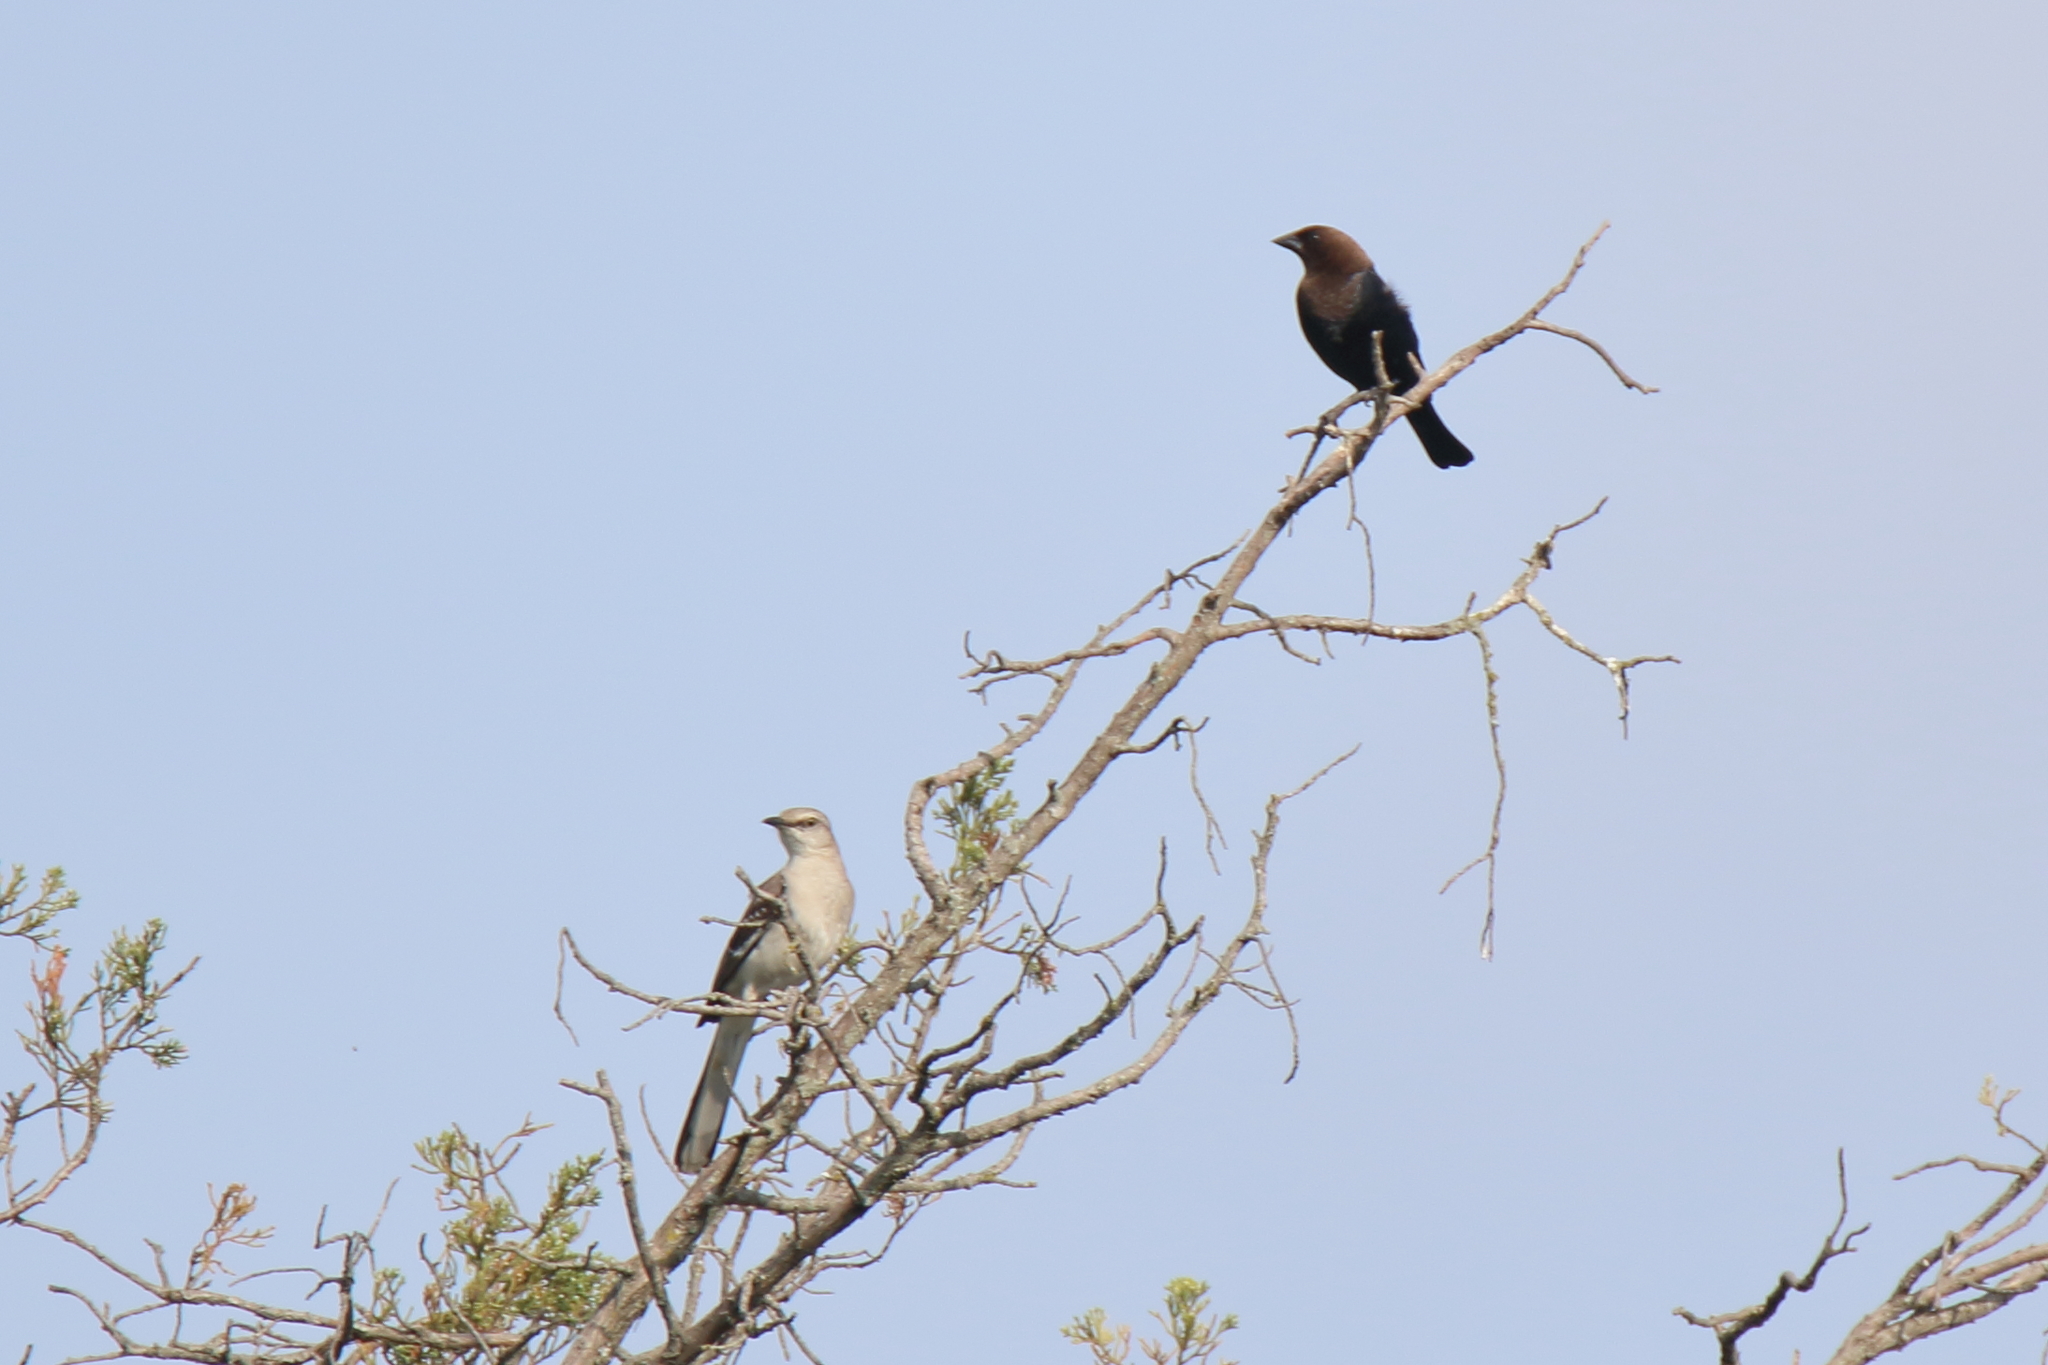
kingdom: Animalia
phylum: Chordata
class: Aves
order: Passeriformes
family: Icteridae
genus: Molothrus
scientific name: Molothrus ater
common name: Brown-headed cowbird
